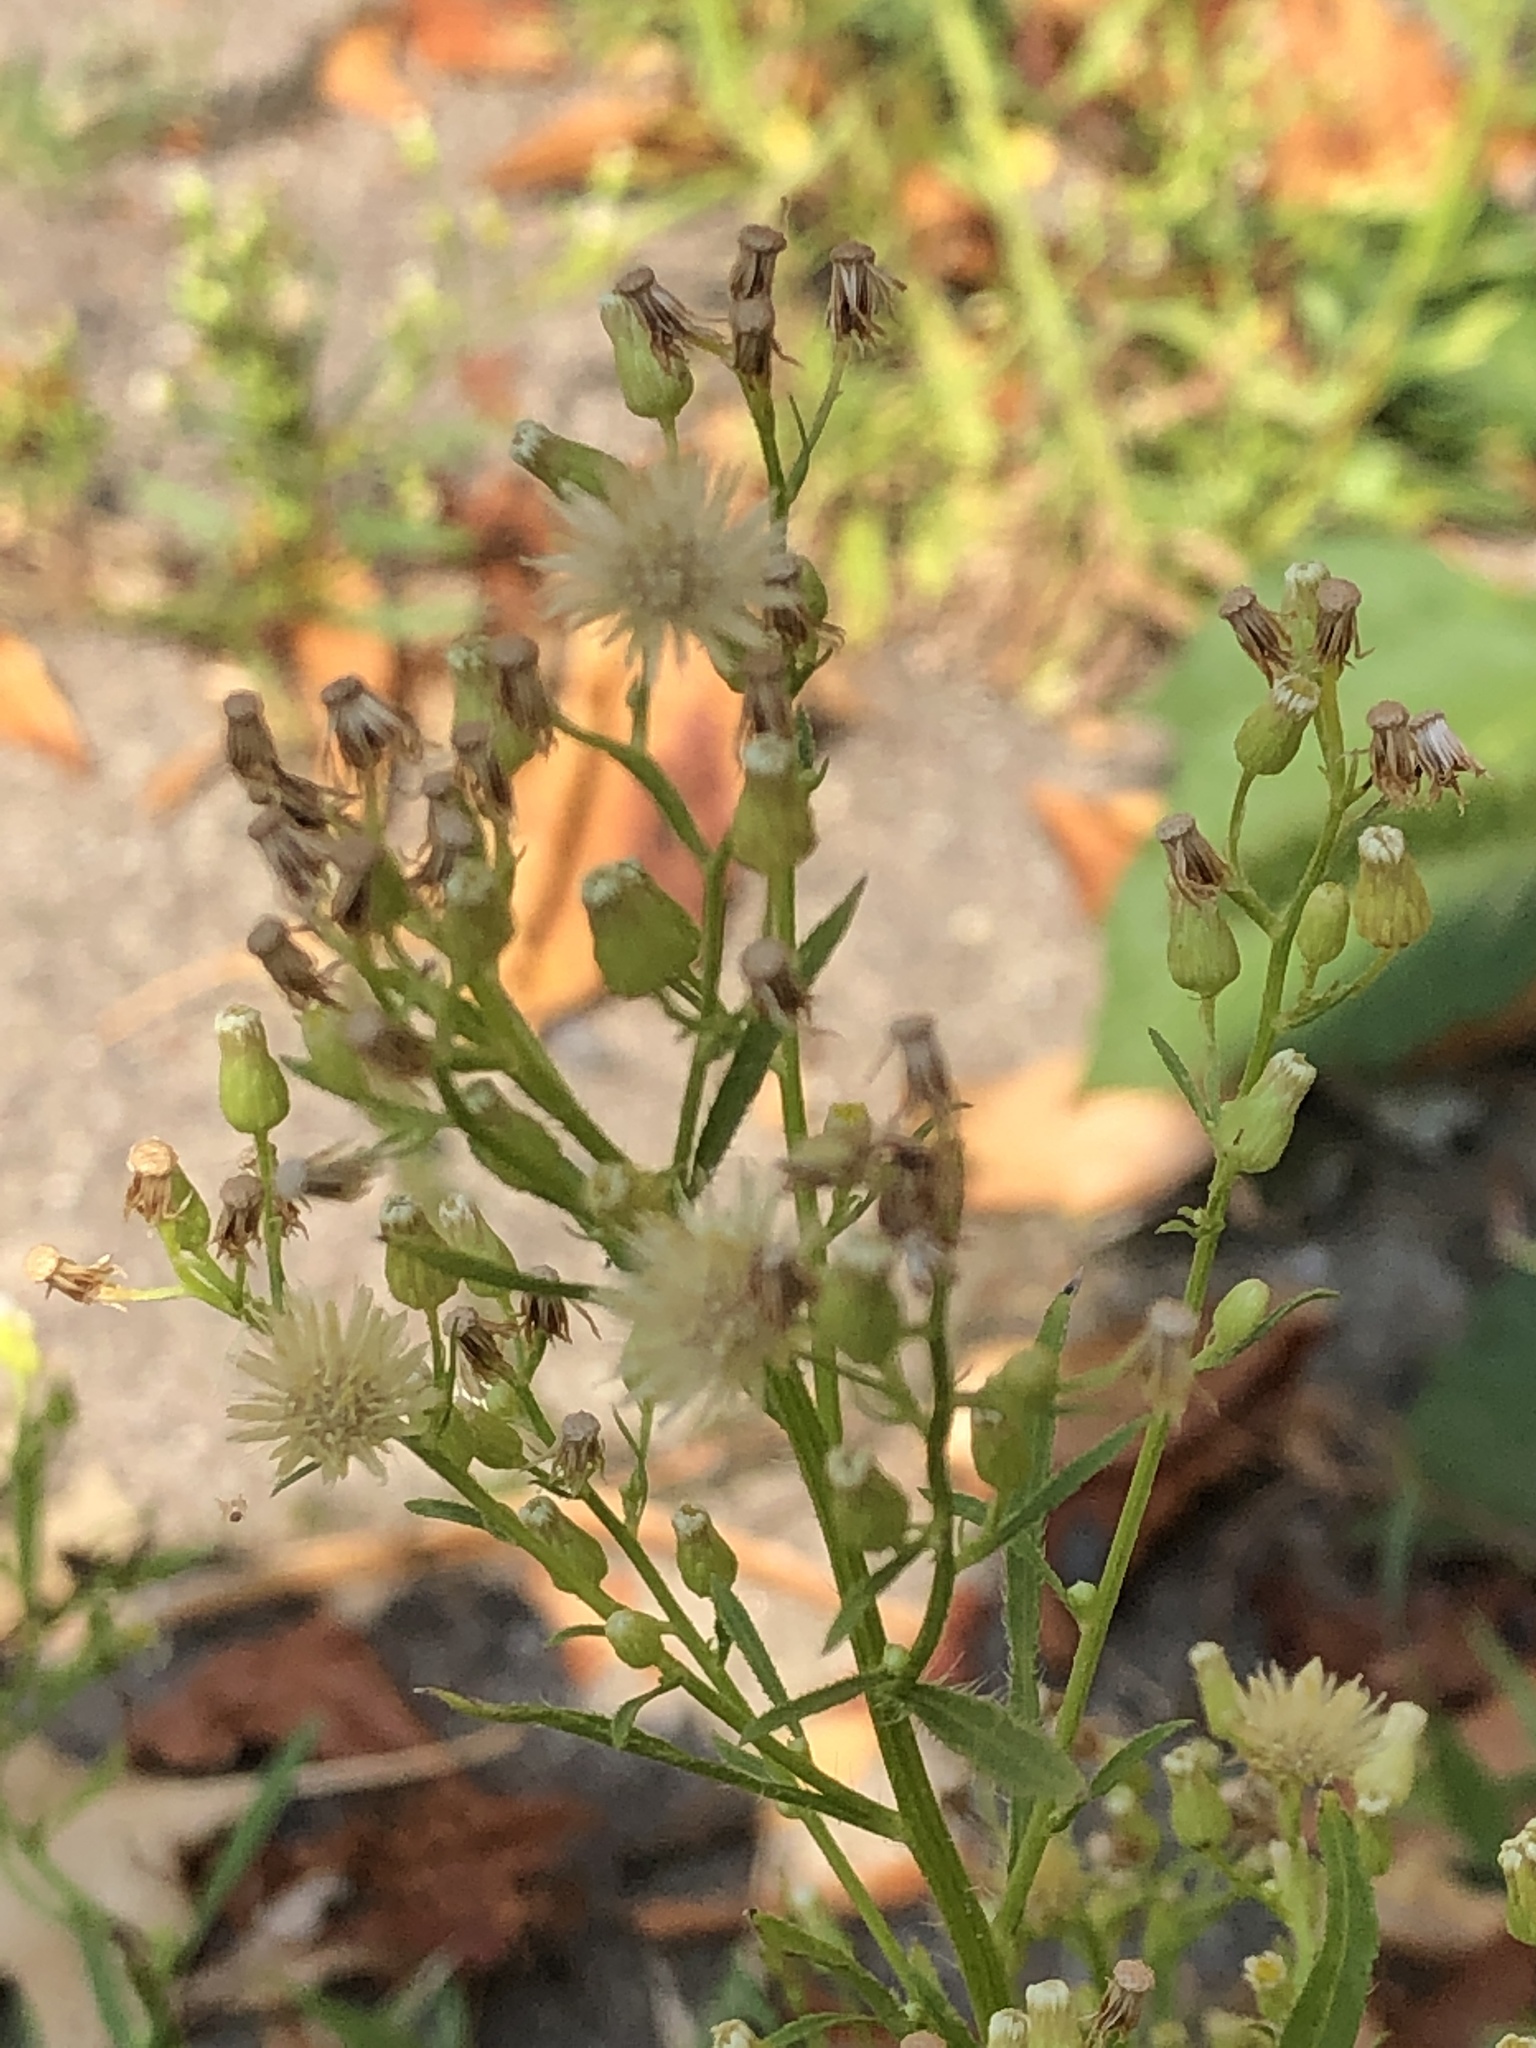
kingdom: Plantae
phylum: Tracheophyta
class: Magnoliopsida
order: Asterales
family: Asteraceae
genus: Erigeron
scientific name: Erigeron canadensis
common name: Canadian fleabane
